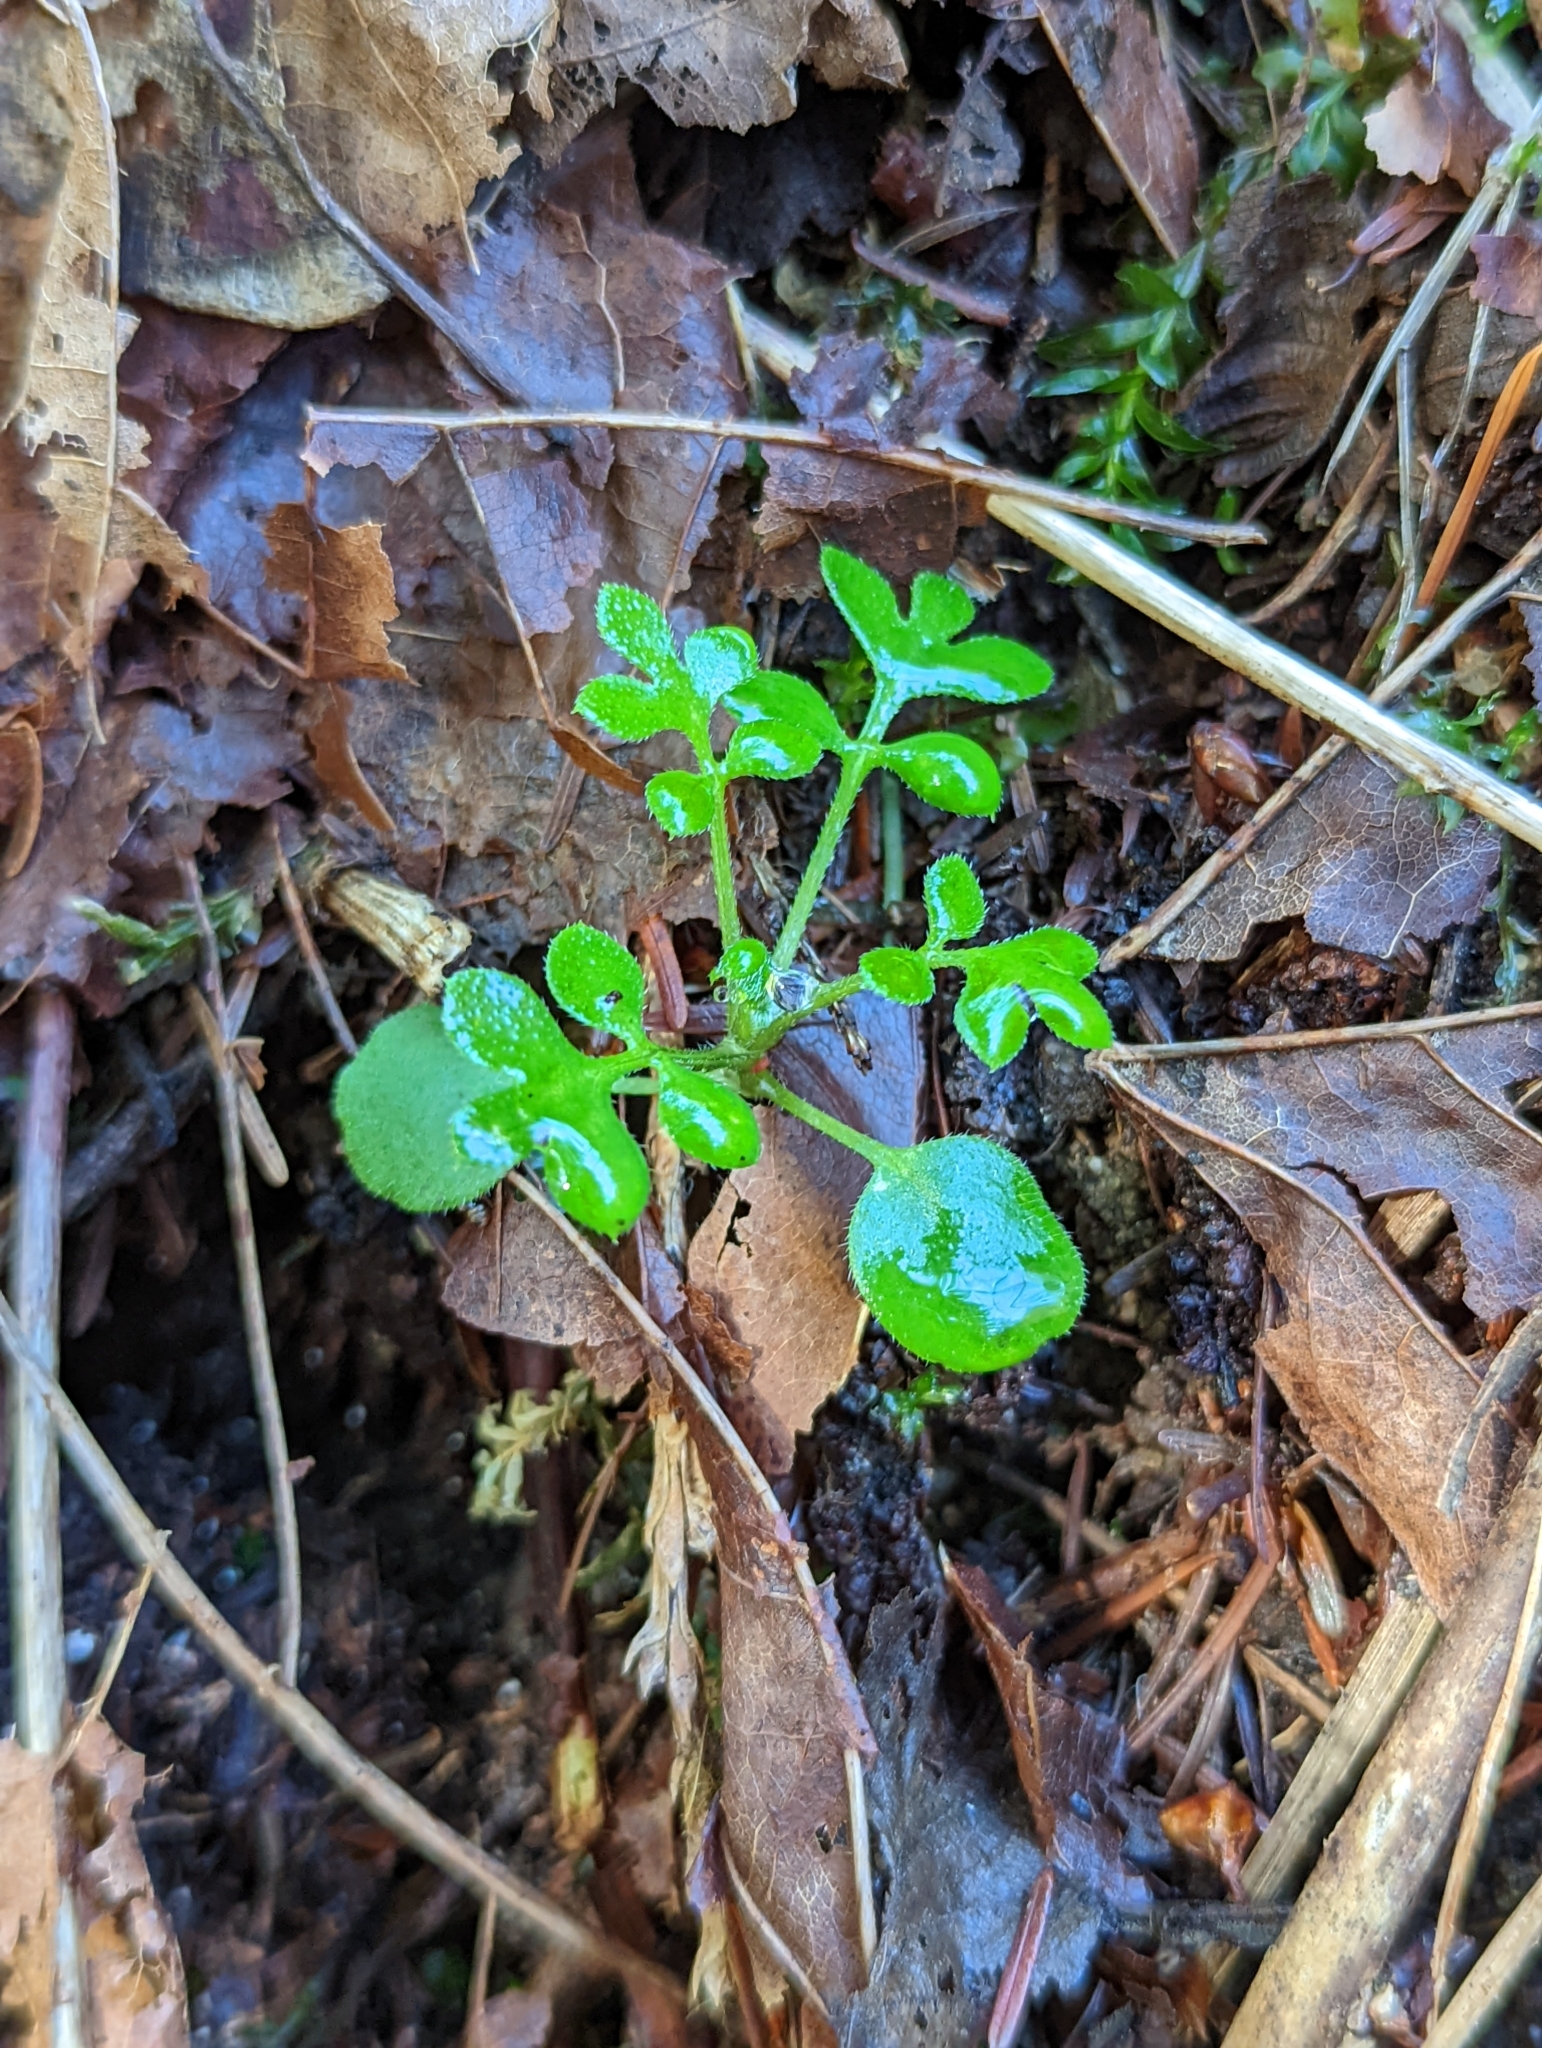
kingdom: Plantae
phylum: Tracheophyta
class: Magnoliopsida
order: Boraginales
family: Hydrophyllaceae
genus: Nemophila
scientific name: Nemophila parviflora
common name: Small-flowered baby-blue-eyes
